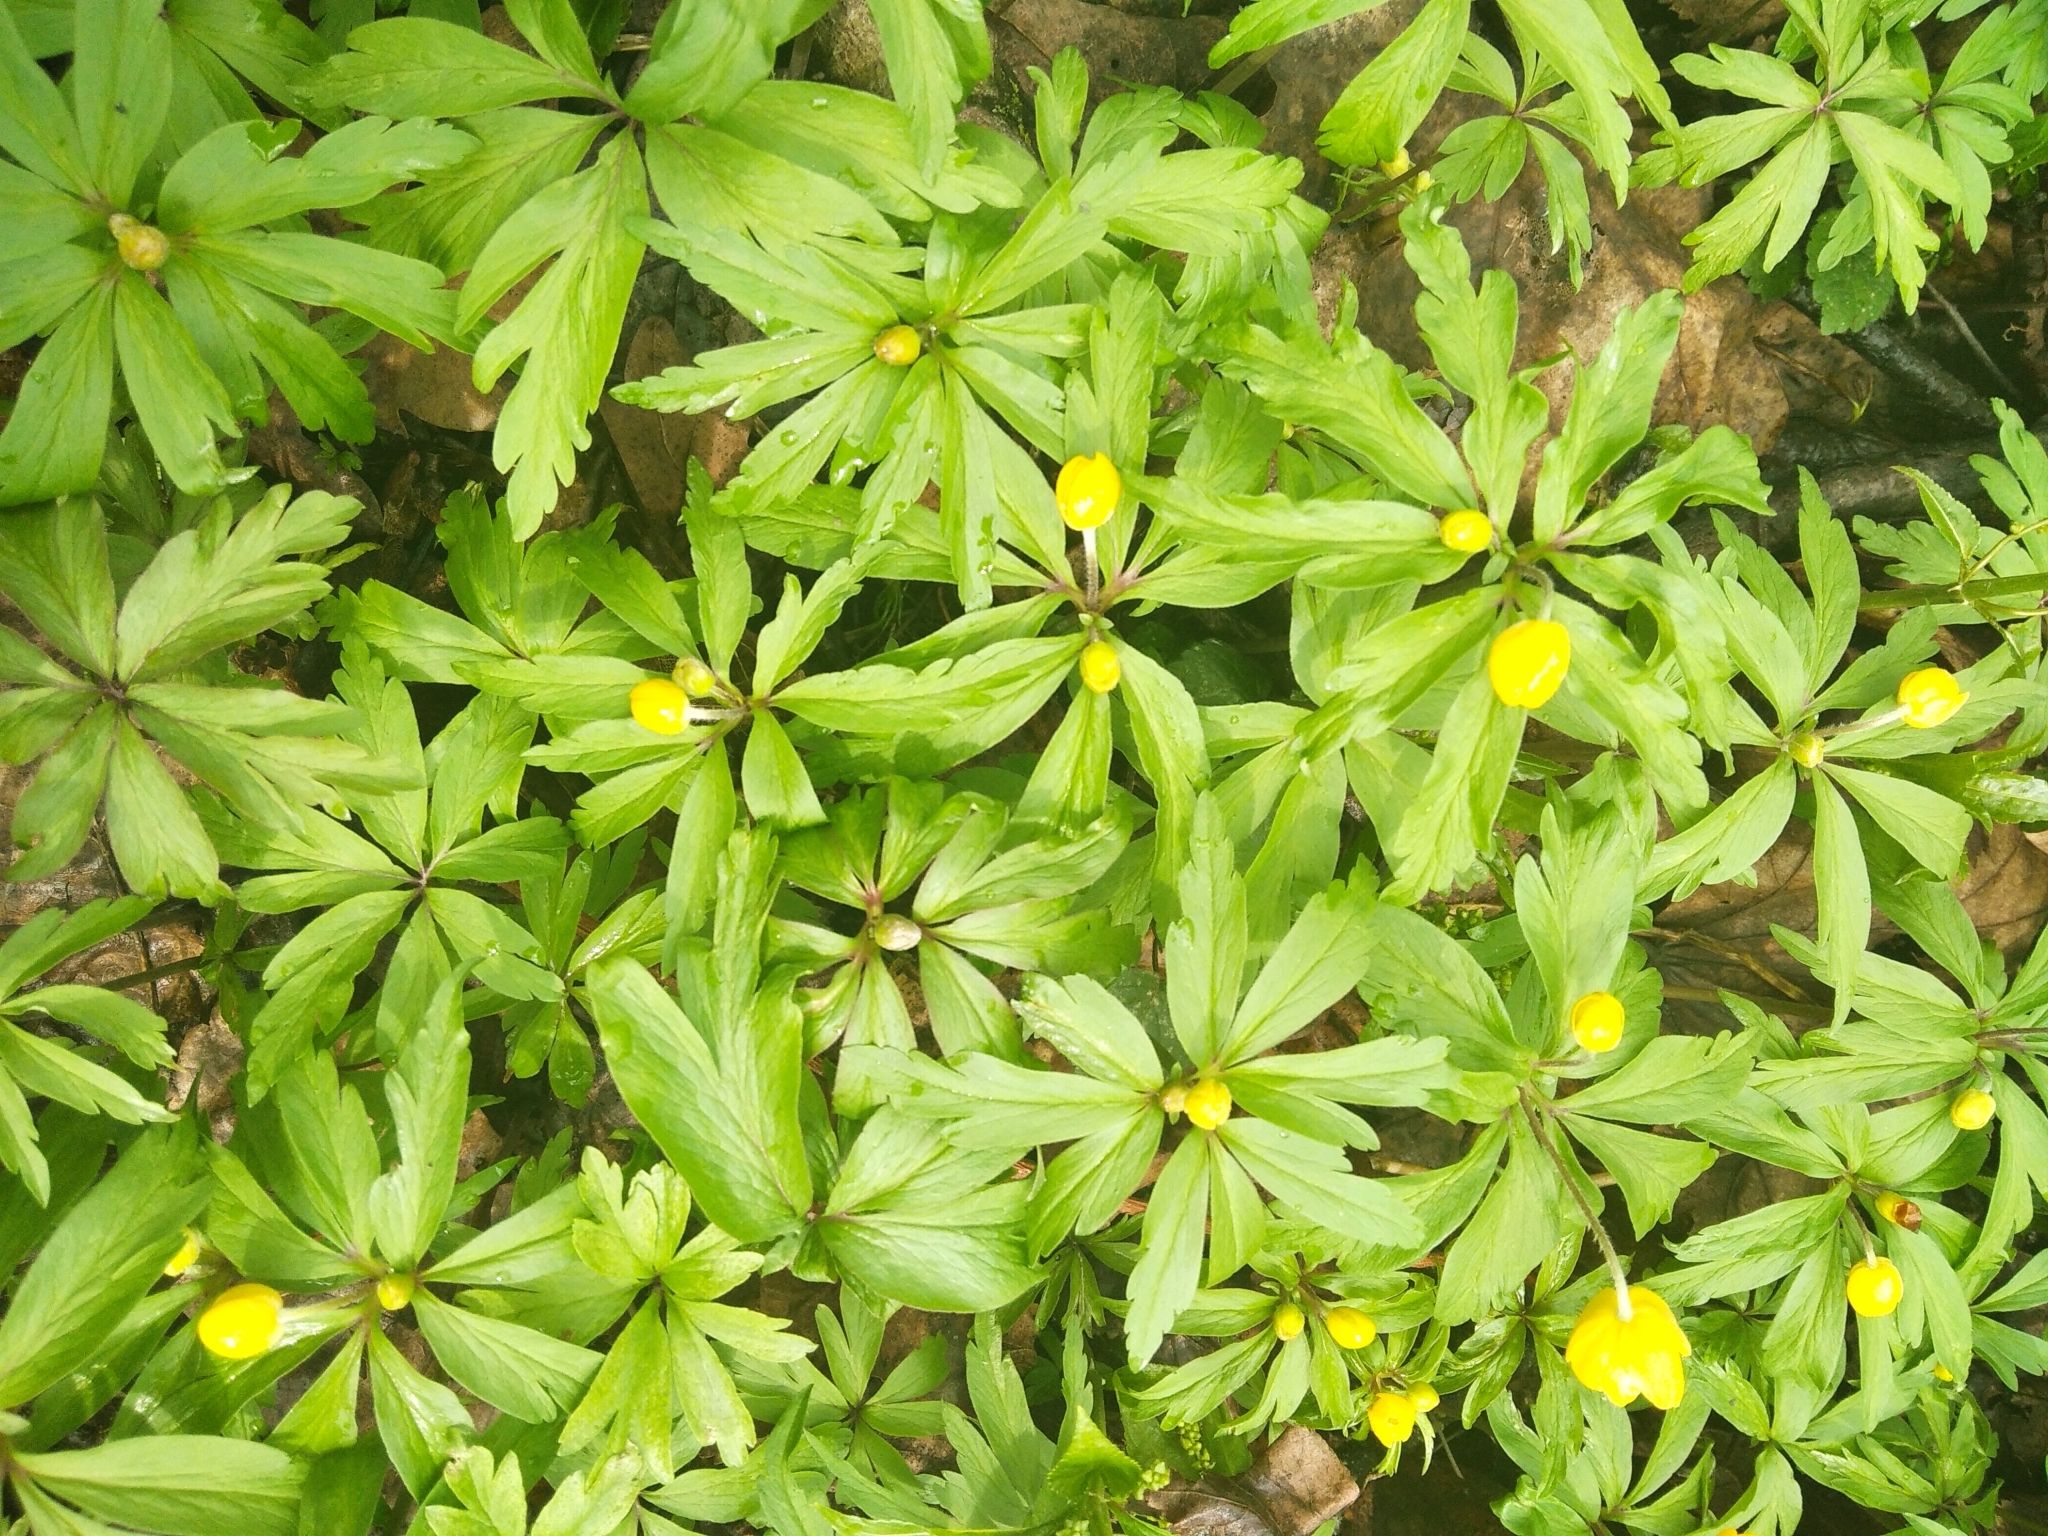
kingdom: Plantae
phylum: Tracheophyta
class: Magnoliopsida
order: Ranunculales
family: Ranunculaceae
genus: Anemone
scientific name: Anemone ranunculoides
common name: Yellow anemone
